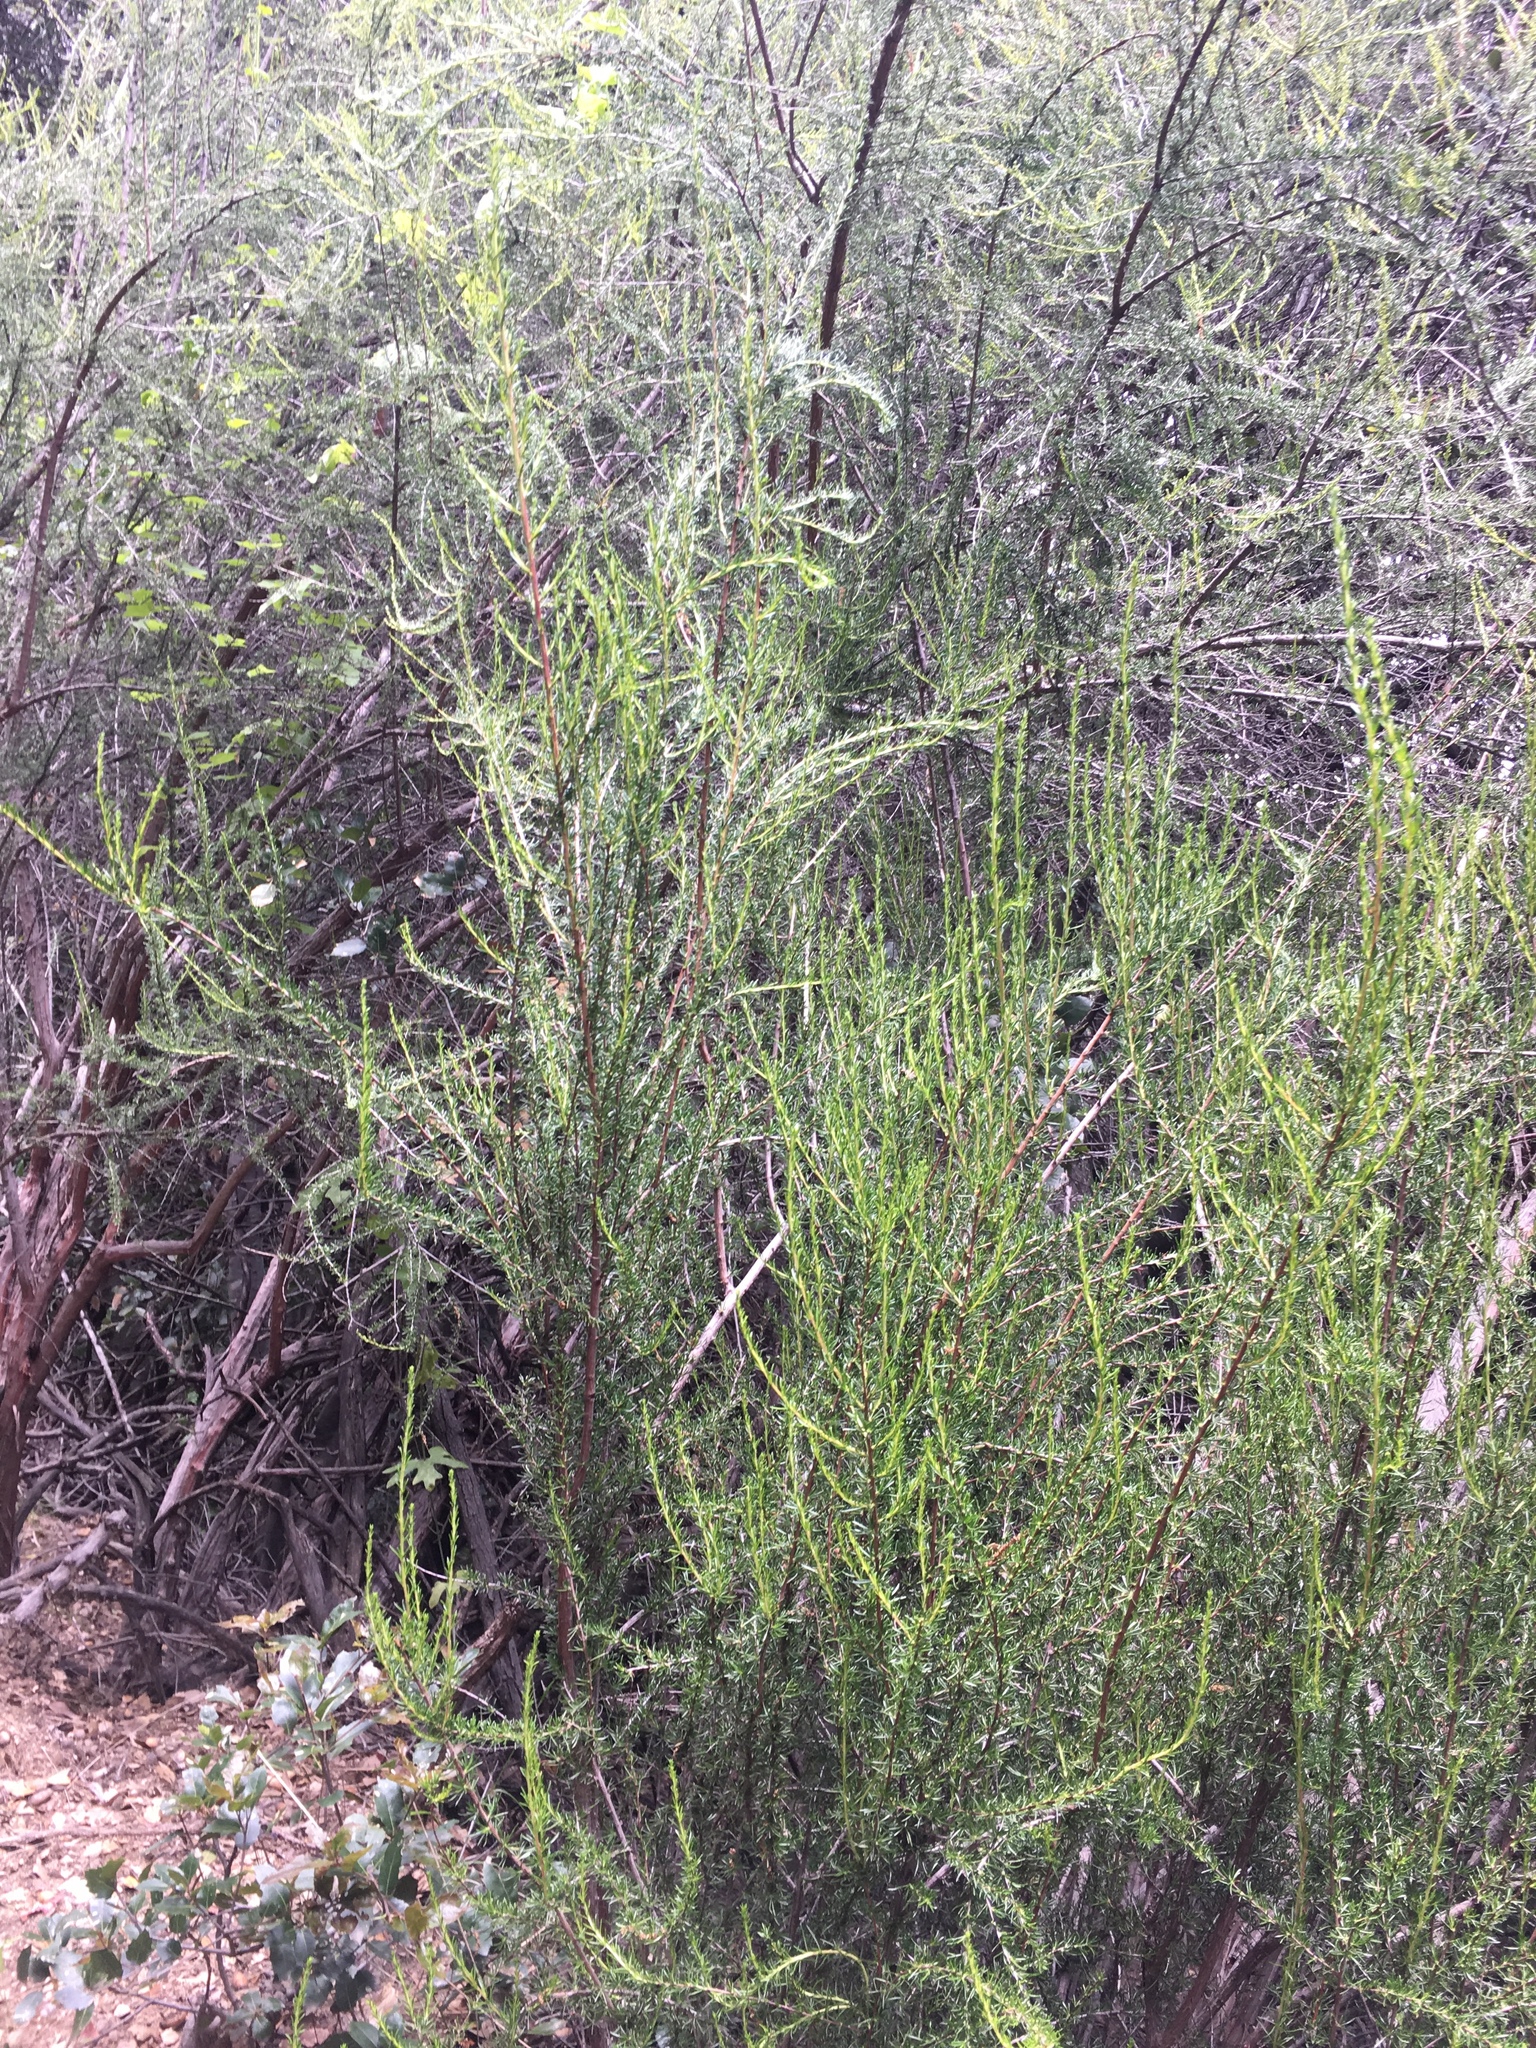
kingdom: Plantae
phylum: Tracheophyta
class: Magnoliopsida
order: Rosales
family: Rosaceae
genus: Adenostoma
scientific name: Adenostoma fasciculatum
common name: Chamise
